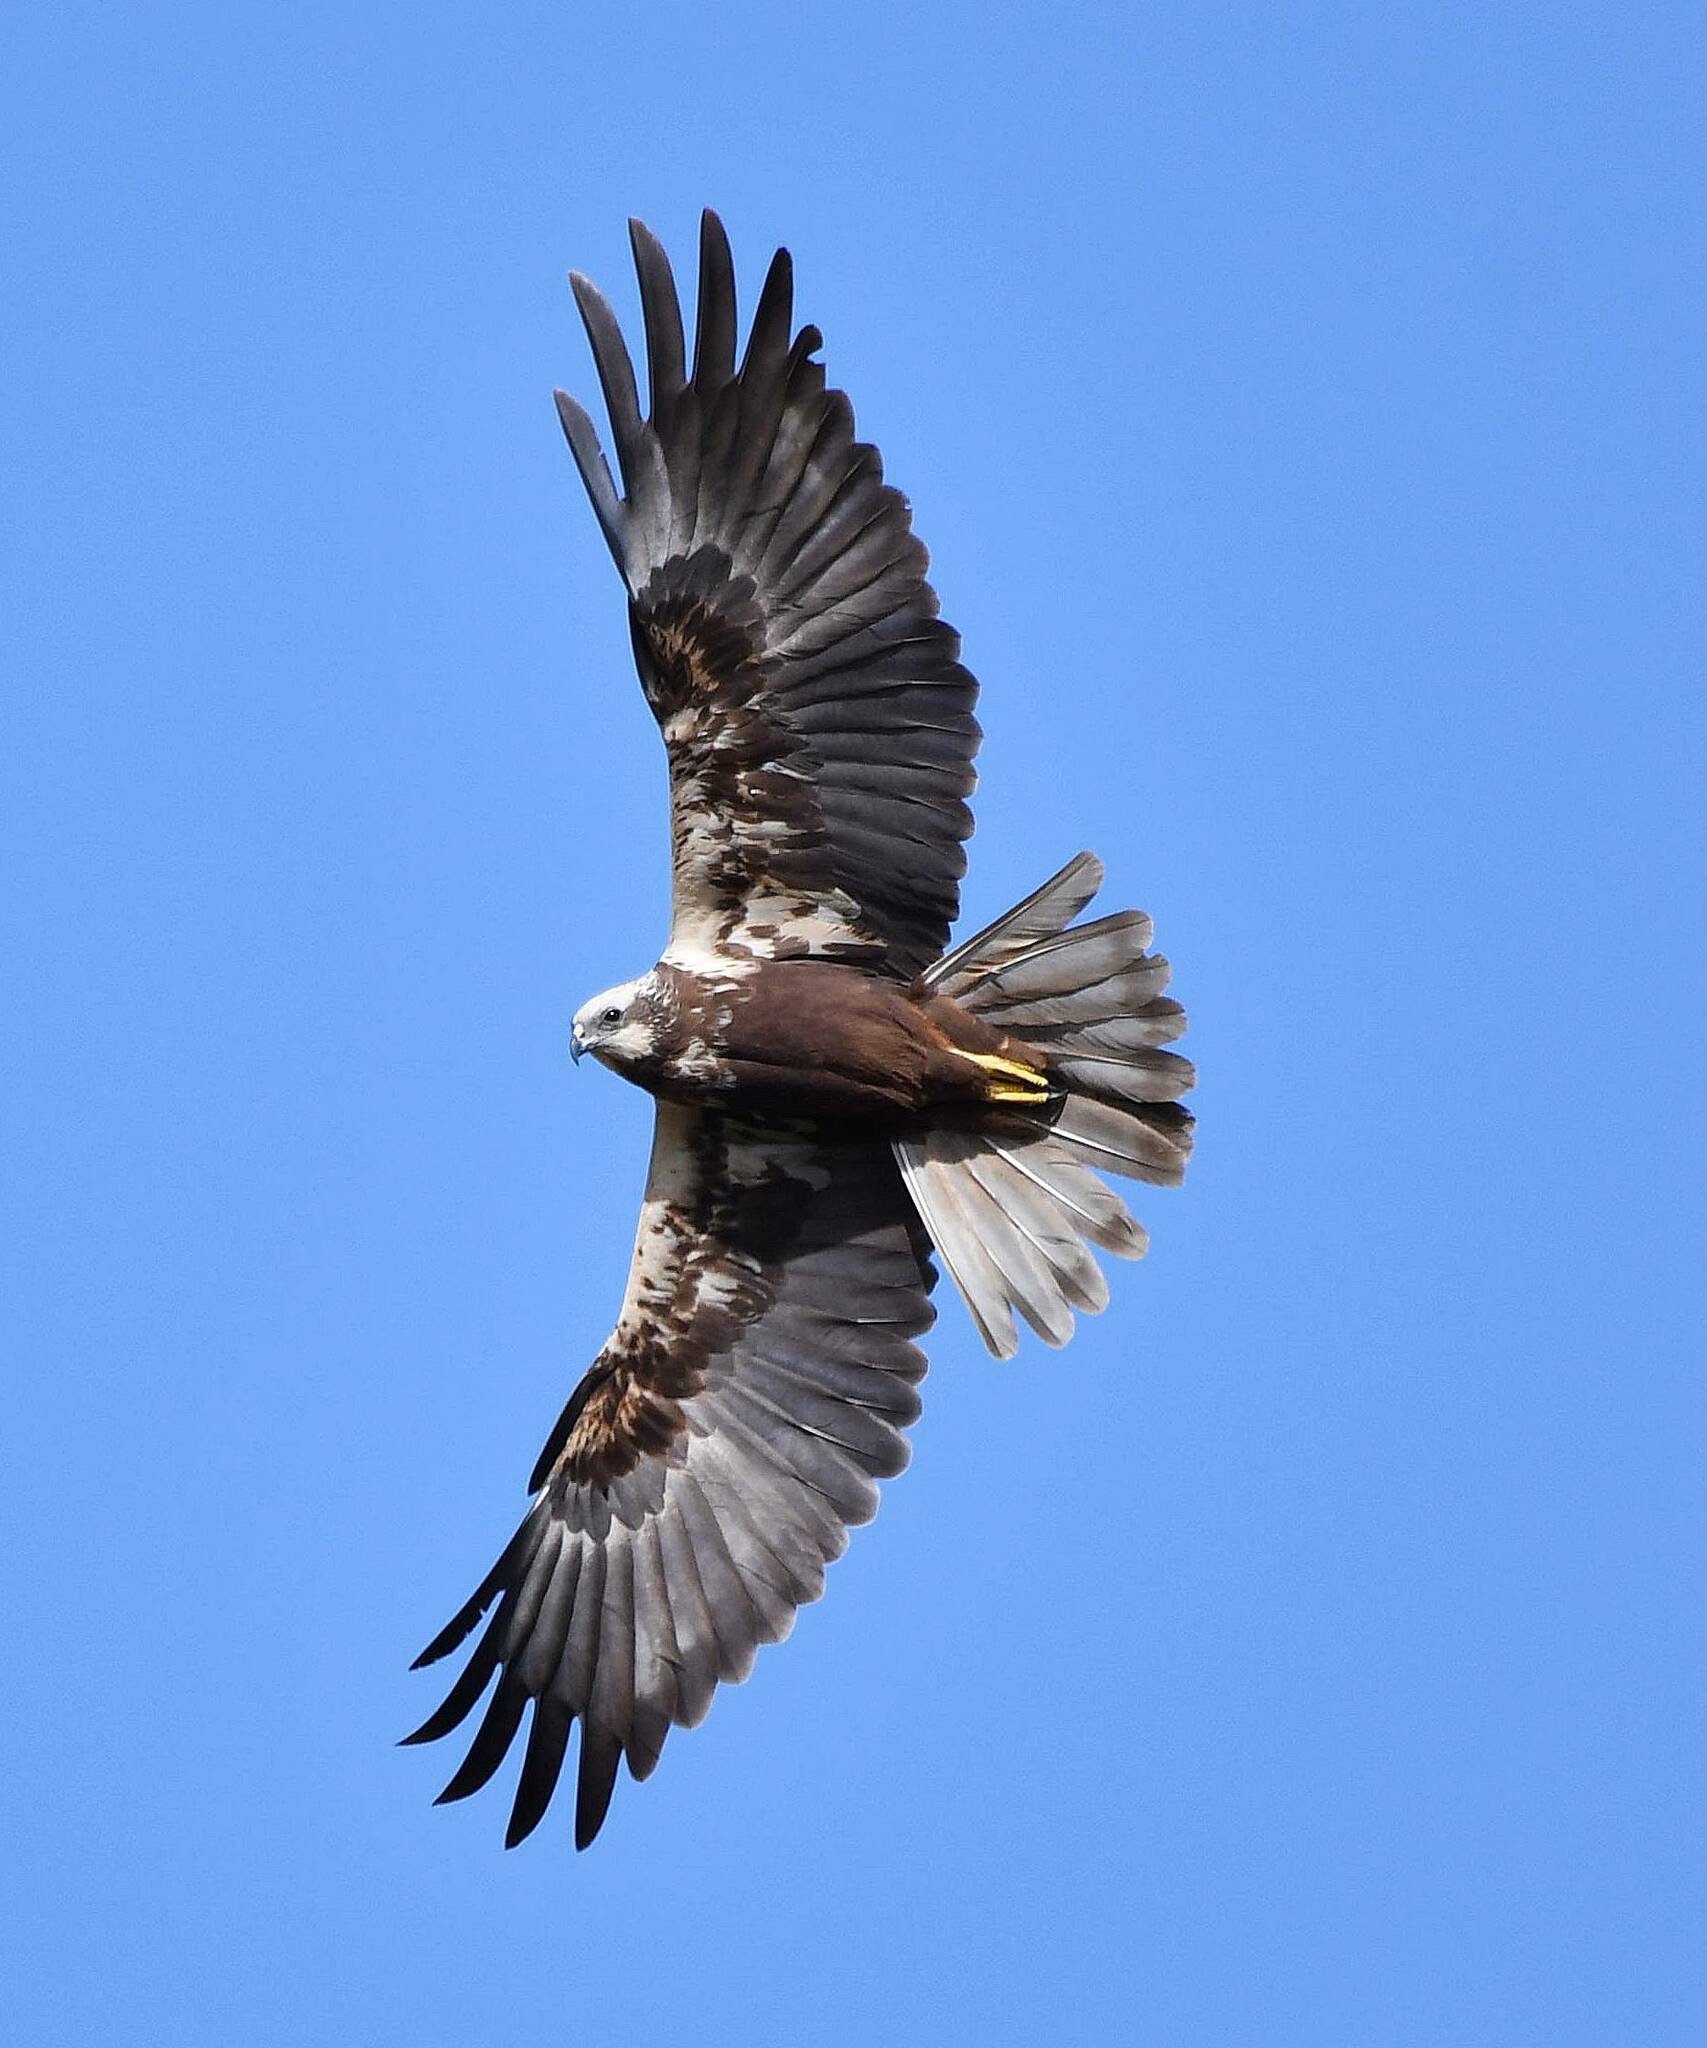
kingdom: Animalia
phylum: Chordata
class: Aves
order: Accipitriformes
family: Accipitridae
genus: Circus
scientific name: Circus aeruginosus
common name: Western marsh harrier
